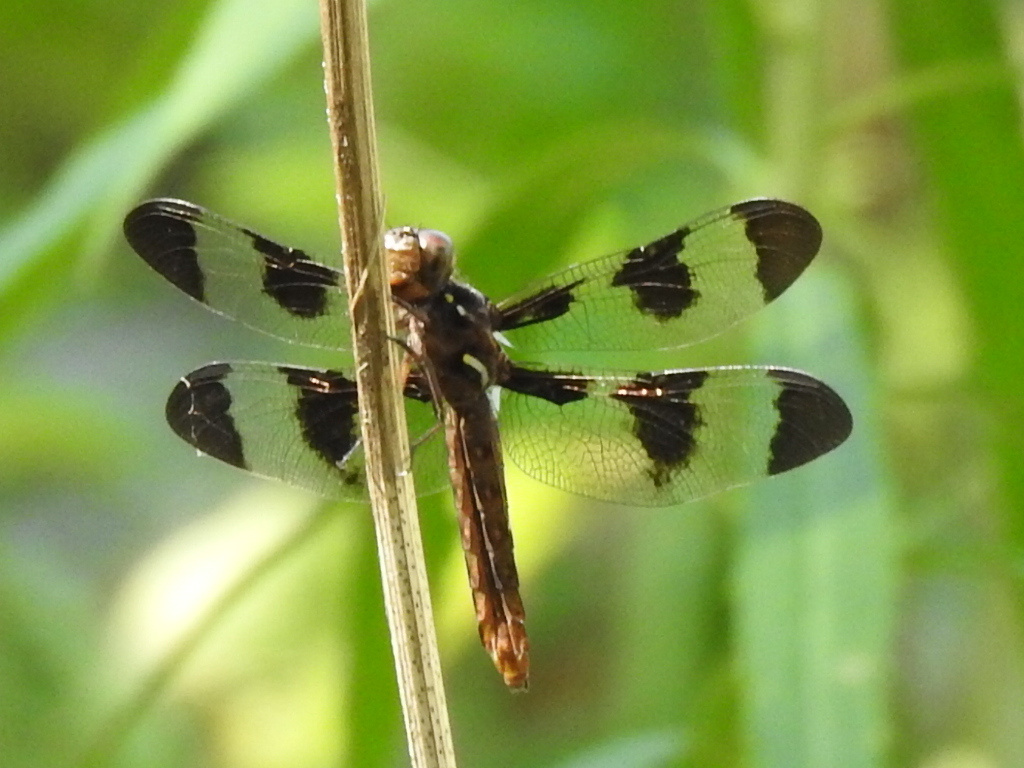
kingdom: Animalia
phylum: Arthropoda
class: Insecta
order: Odonata
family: Libellulidae
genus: Plathemis
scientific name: Plathemis lydia
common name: Common whitetail
